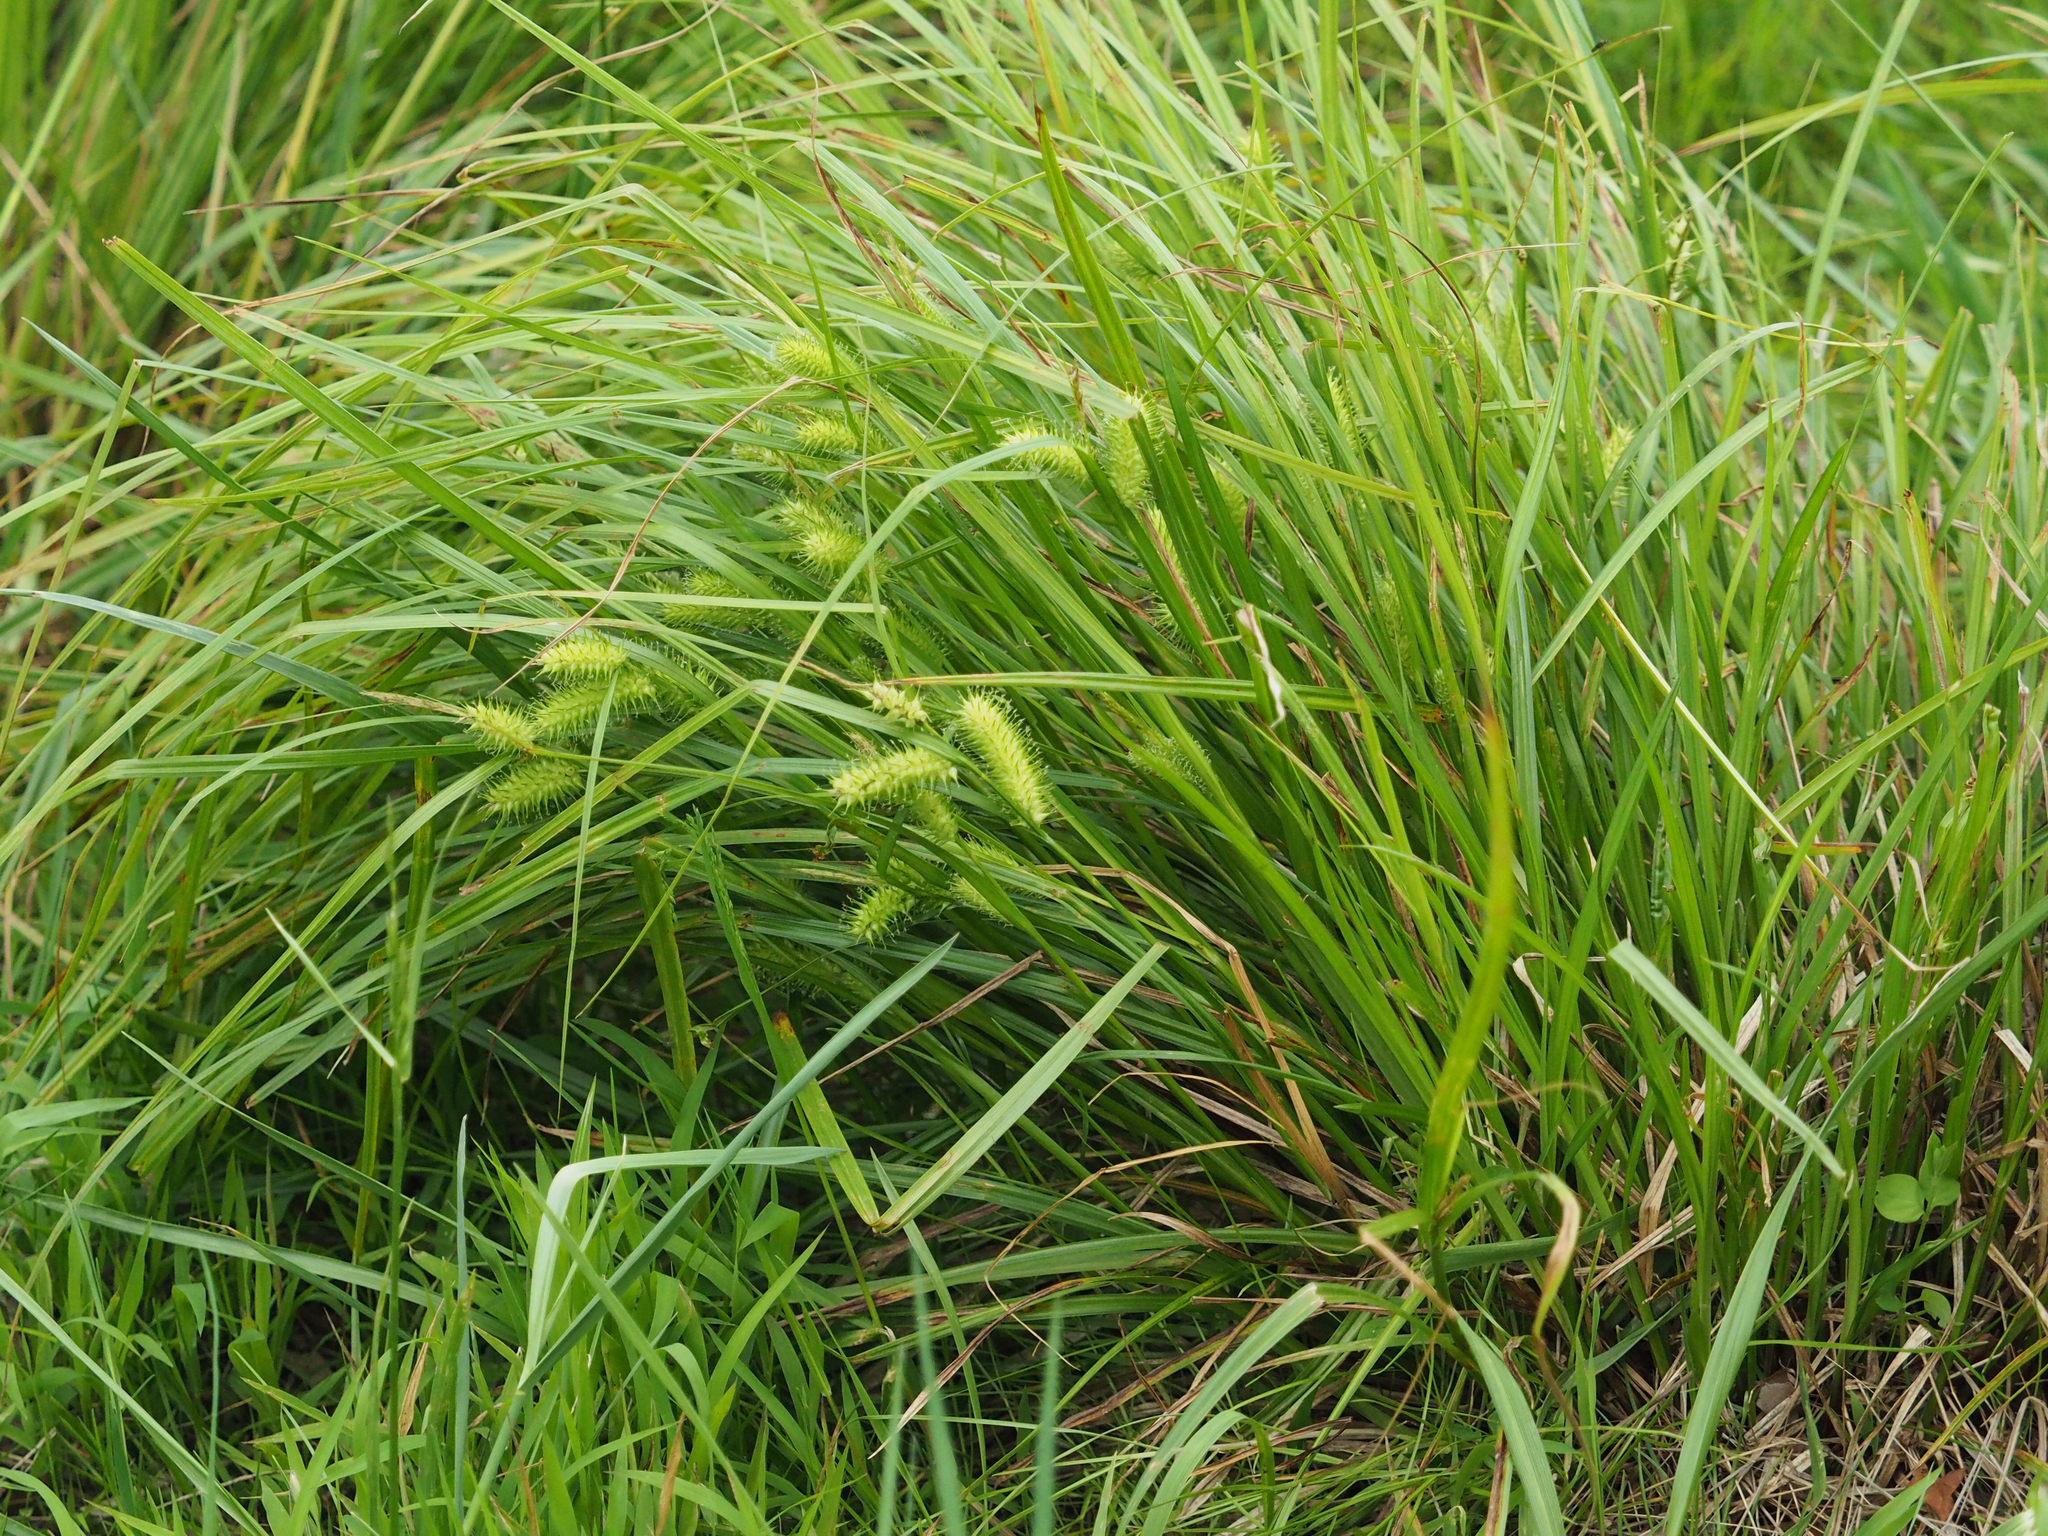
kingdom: Plantae
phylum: Tracheophyta
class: Liliopsida
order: Poales
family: Cyperaceae
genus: Carex
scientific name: Carex lurida
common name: Sallow sedge
